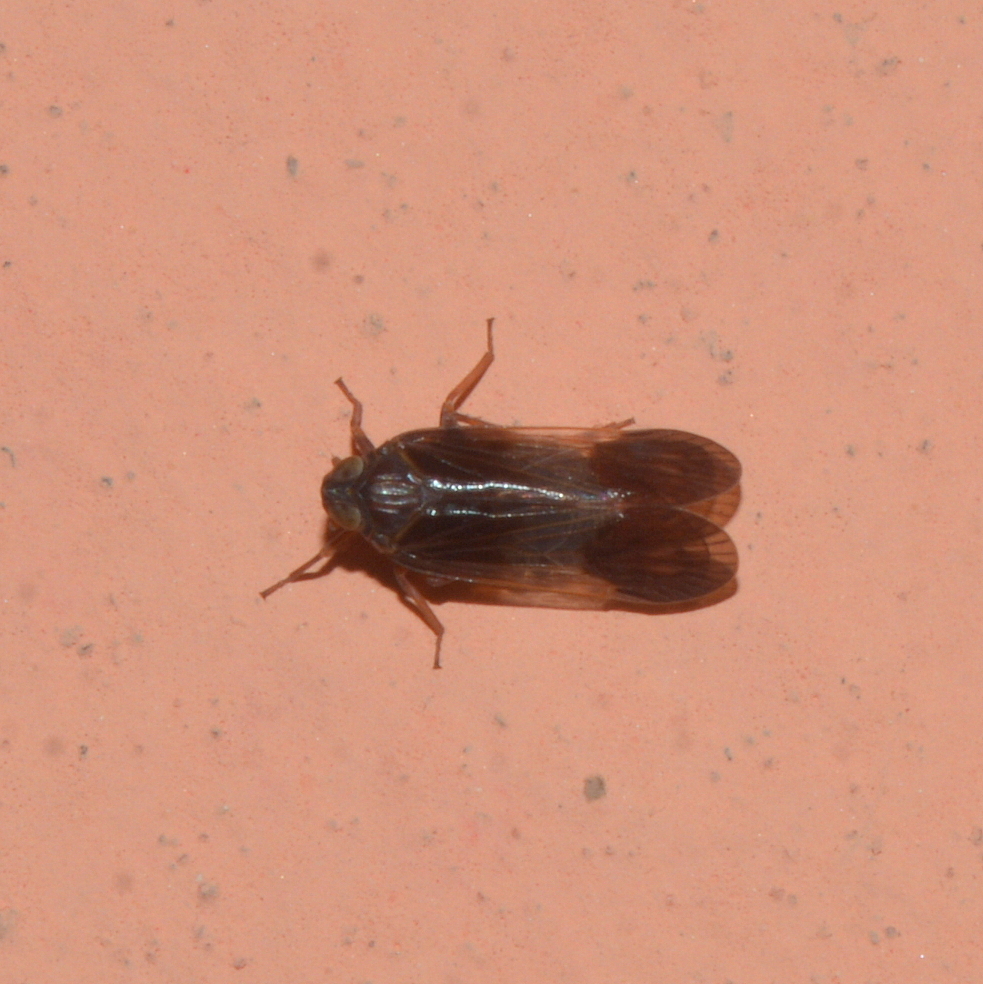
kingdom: Animalia
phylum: Arthropoda
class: Insecta
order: Hemiptera
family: Cixiidae
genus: Melanoliarus
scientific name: Melanoliarus dimidiatus
